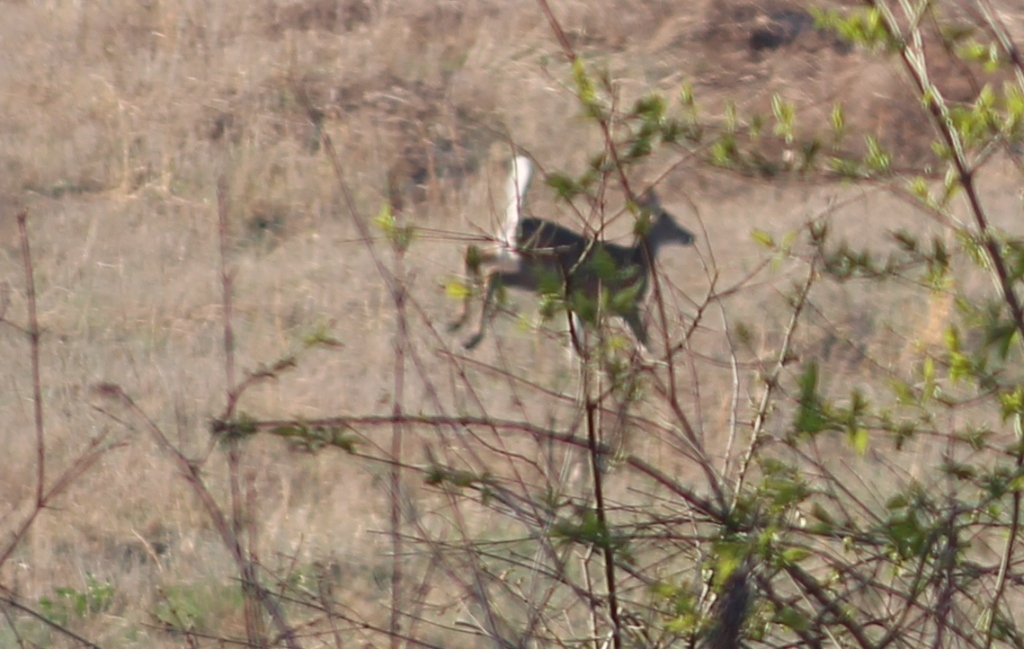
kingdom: Animalia
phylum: Chordata
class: Mammalia
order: Artiodactyla
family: Cervidae
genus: Odocoileus
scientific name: Odocoileus virginianus
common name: White-tailed deer
